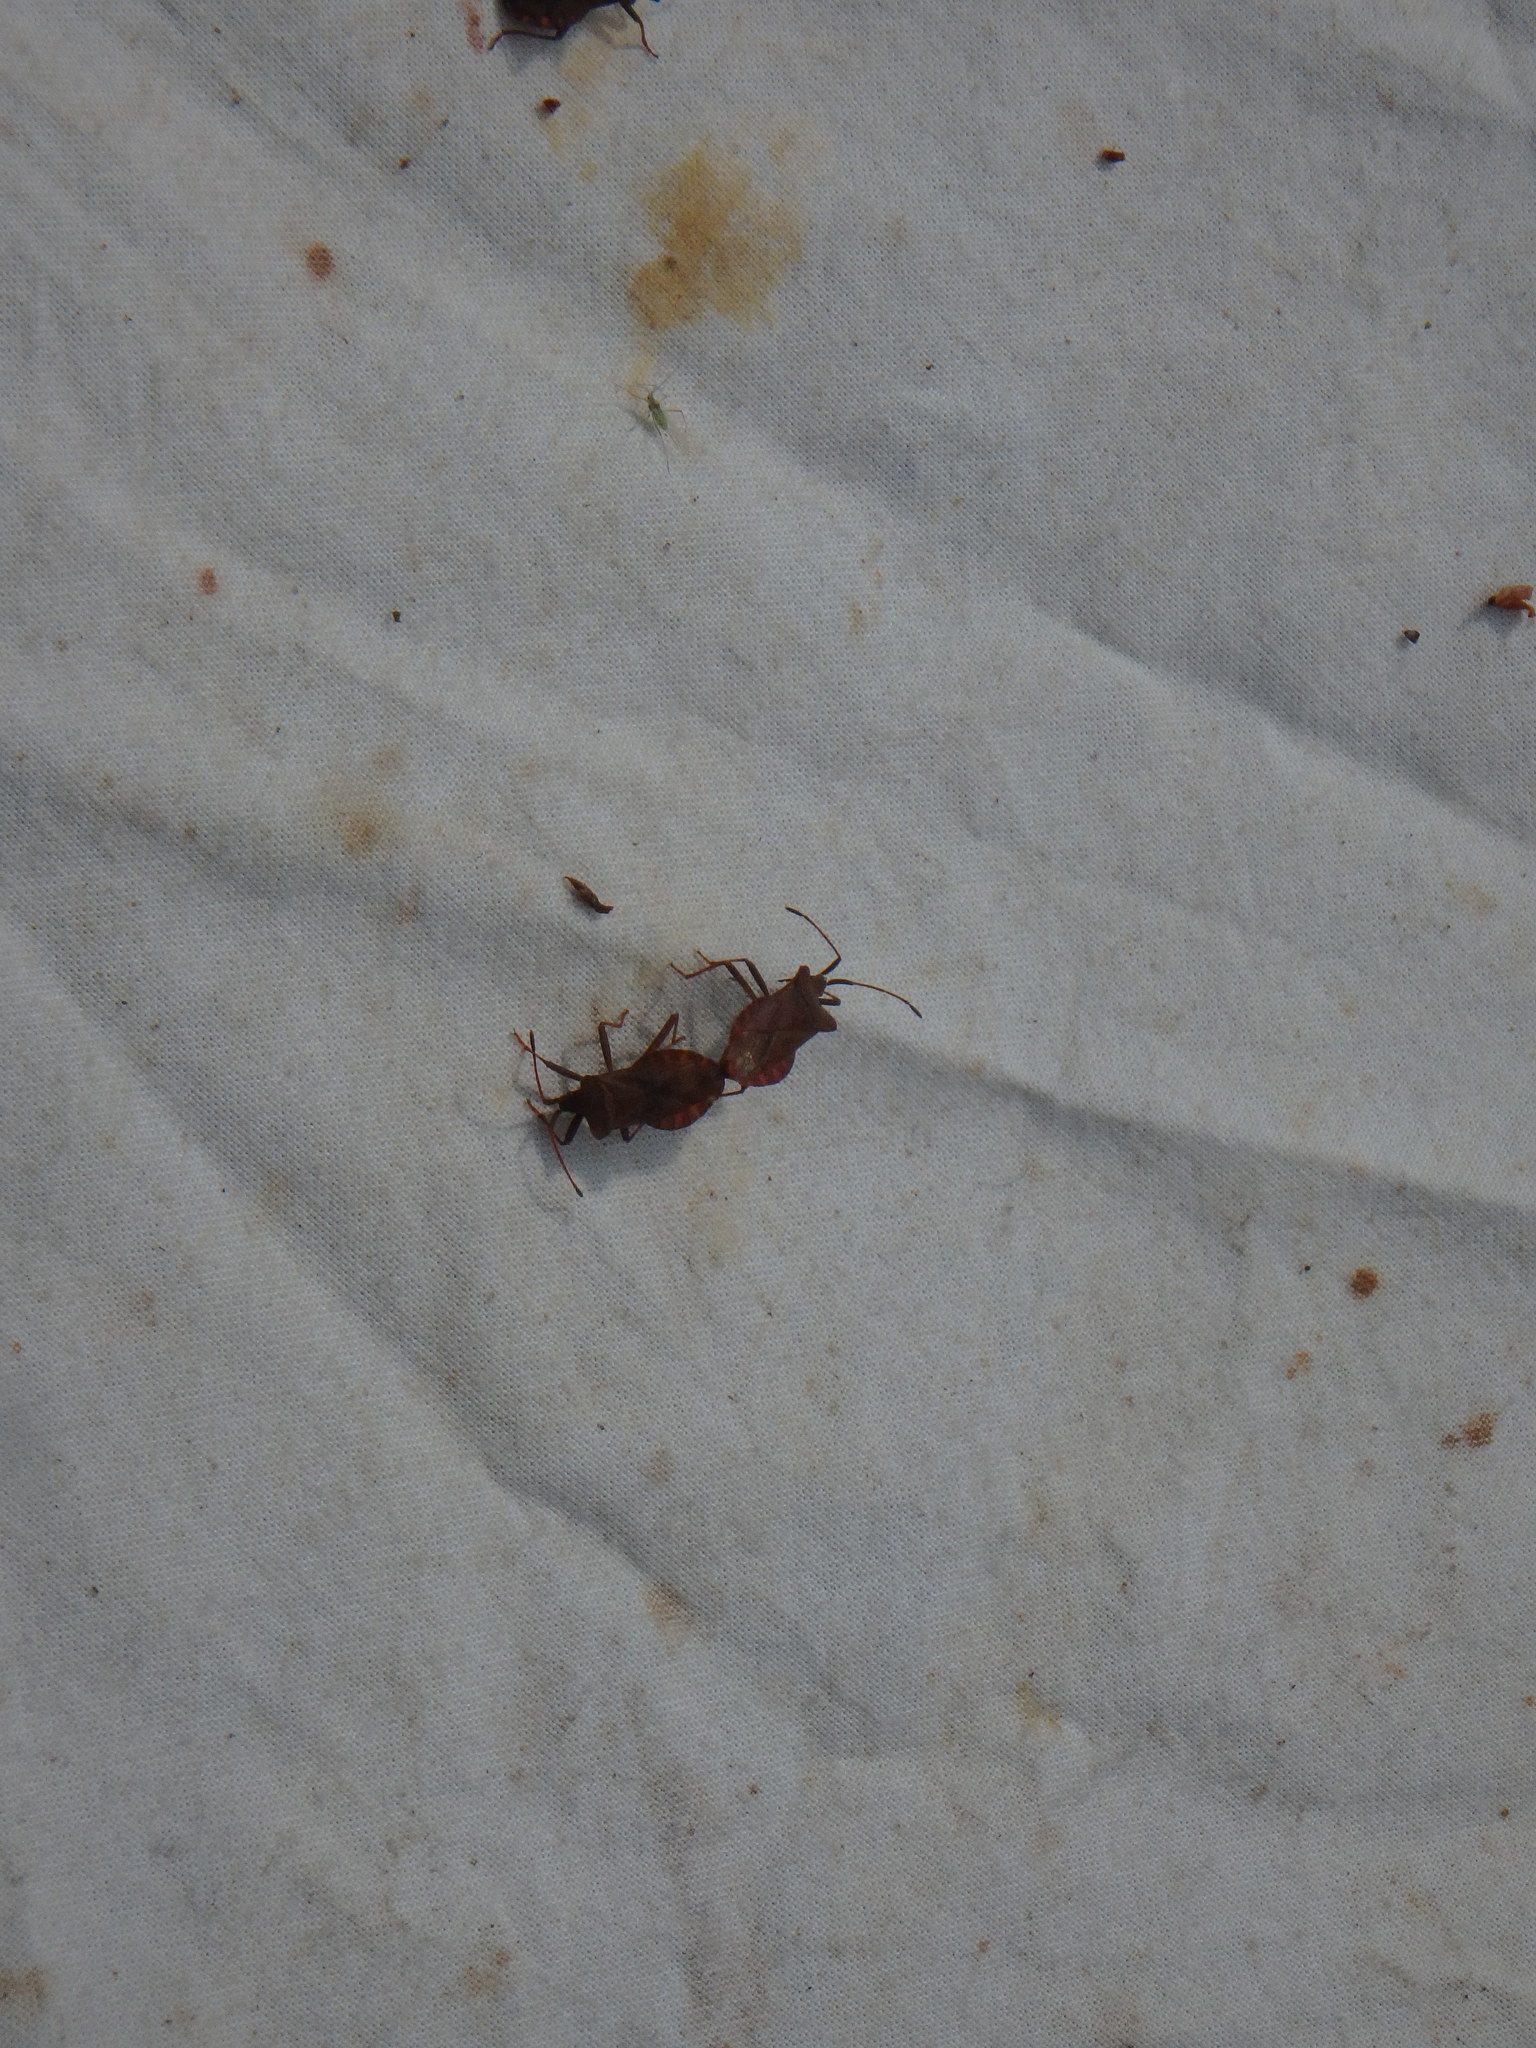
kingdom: Animalia
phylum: Arthropoda
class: Insecta
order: Hemiptera
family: Coreidae
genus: Coreus
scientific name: Coreus marginatus
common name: Dock bug
